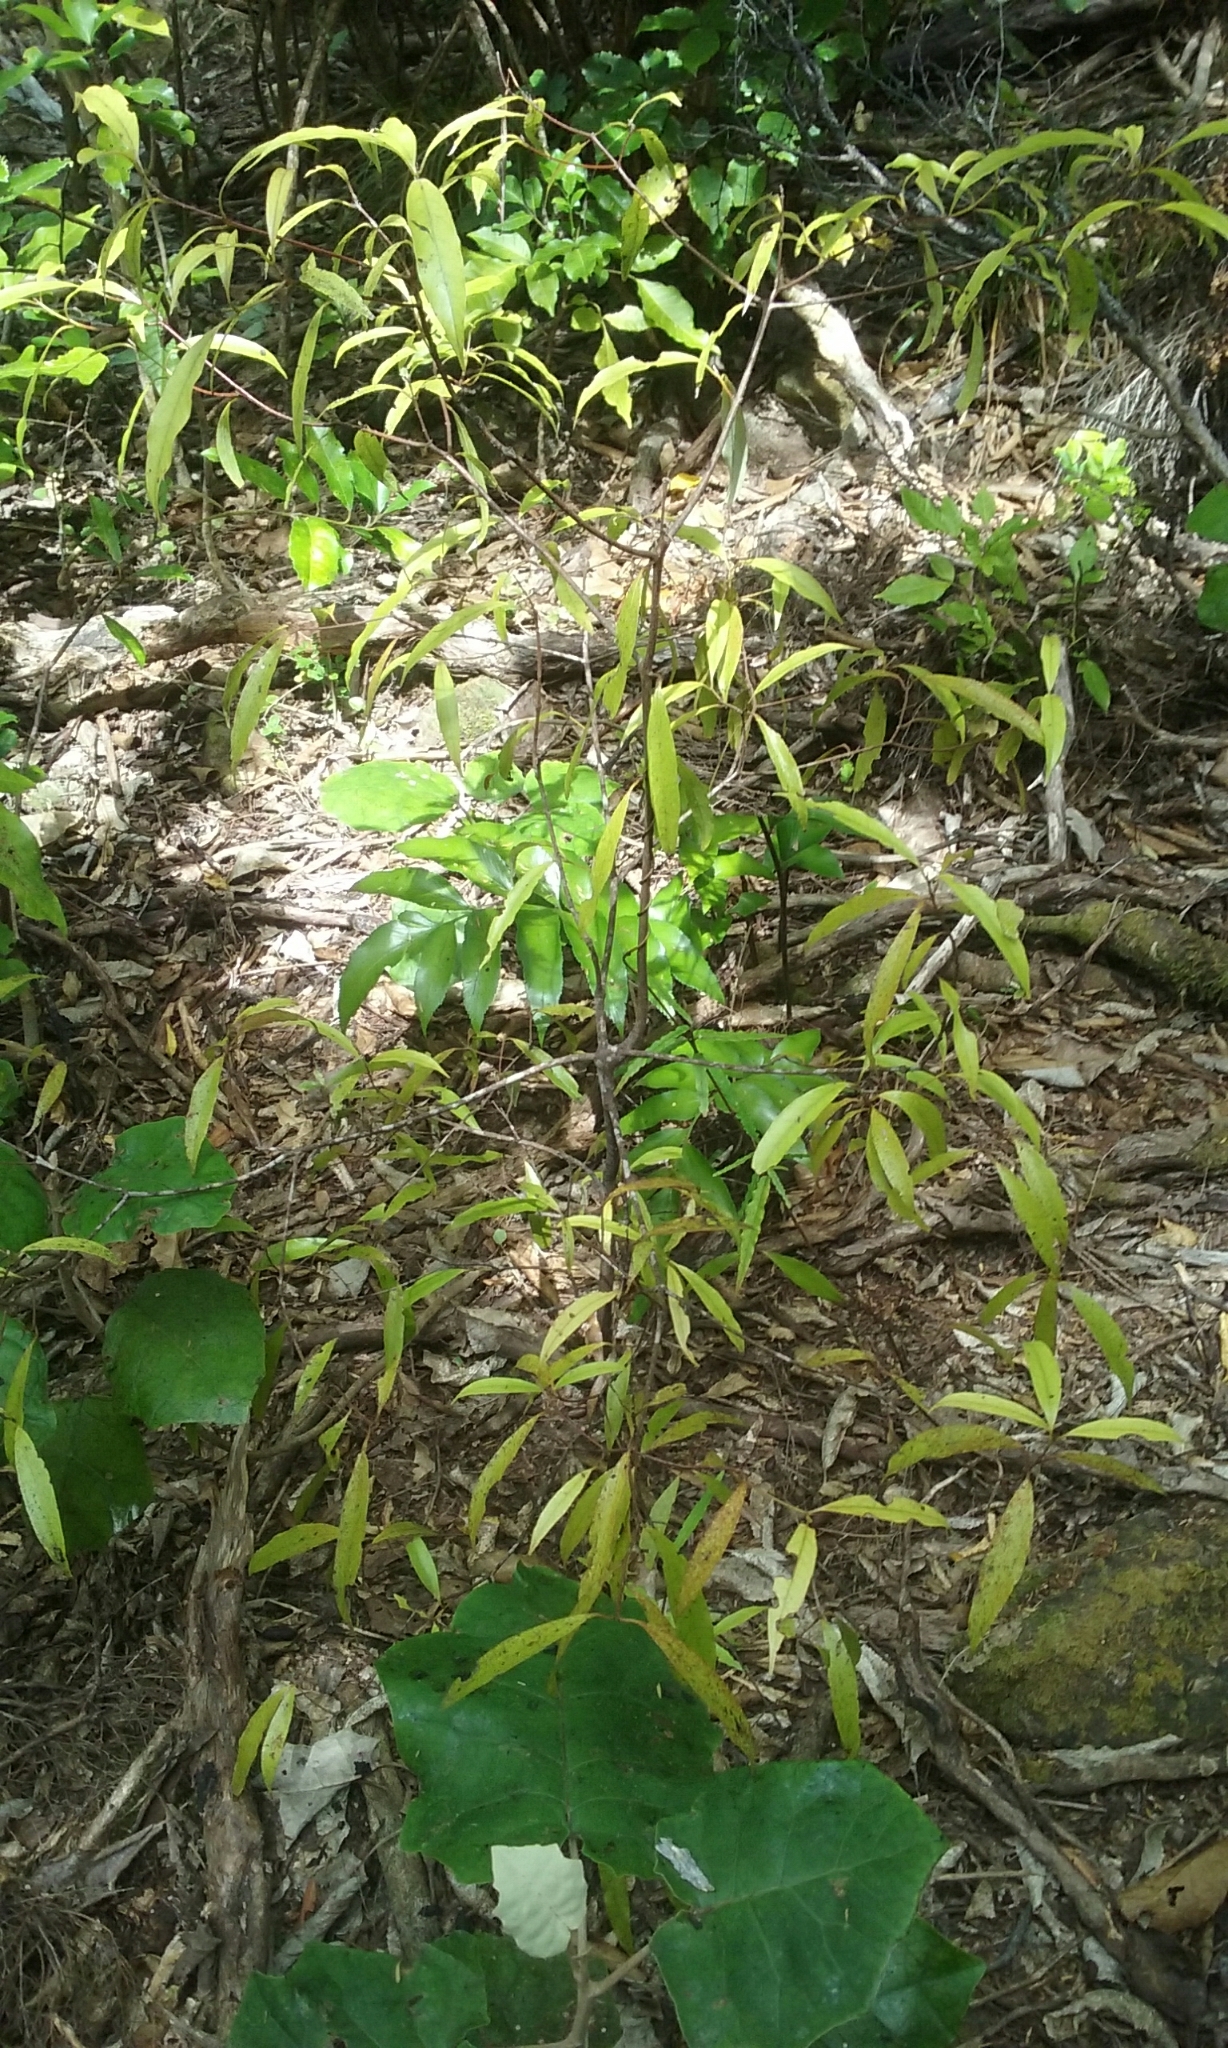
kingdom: Plantae
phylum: Tracheophyta
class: Magnoliopsida
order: Laurales
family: Lauraceae
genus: Beilschmiedia
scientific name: Beilschmiedia tawa
